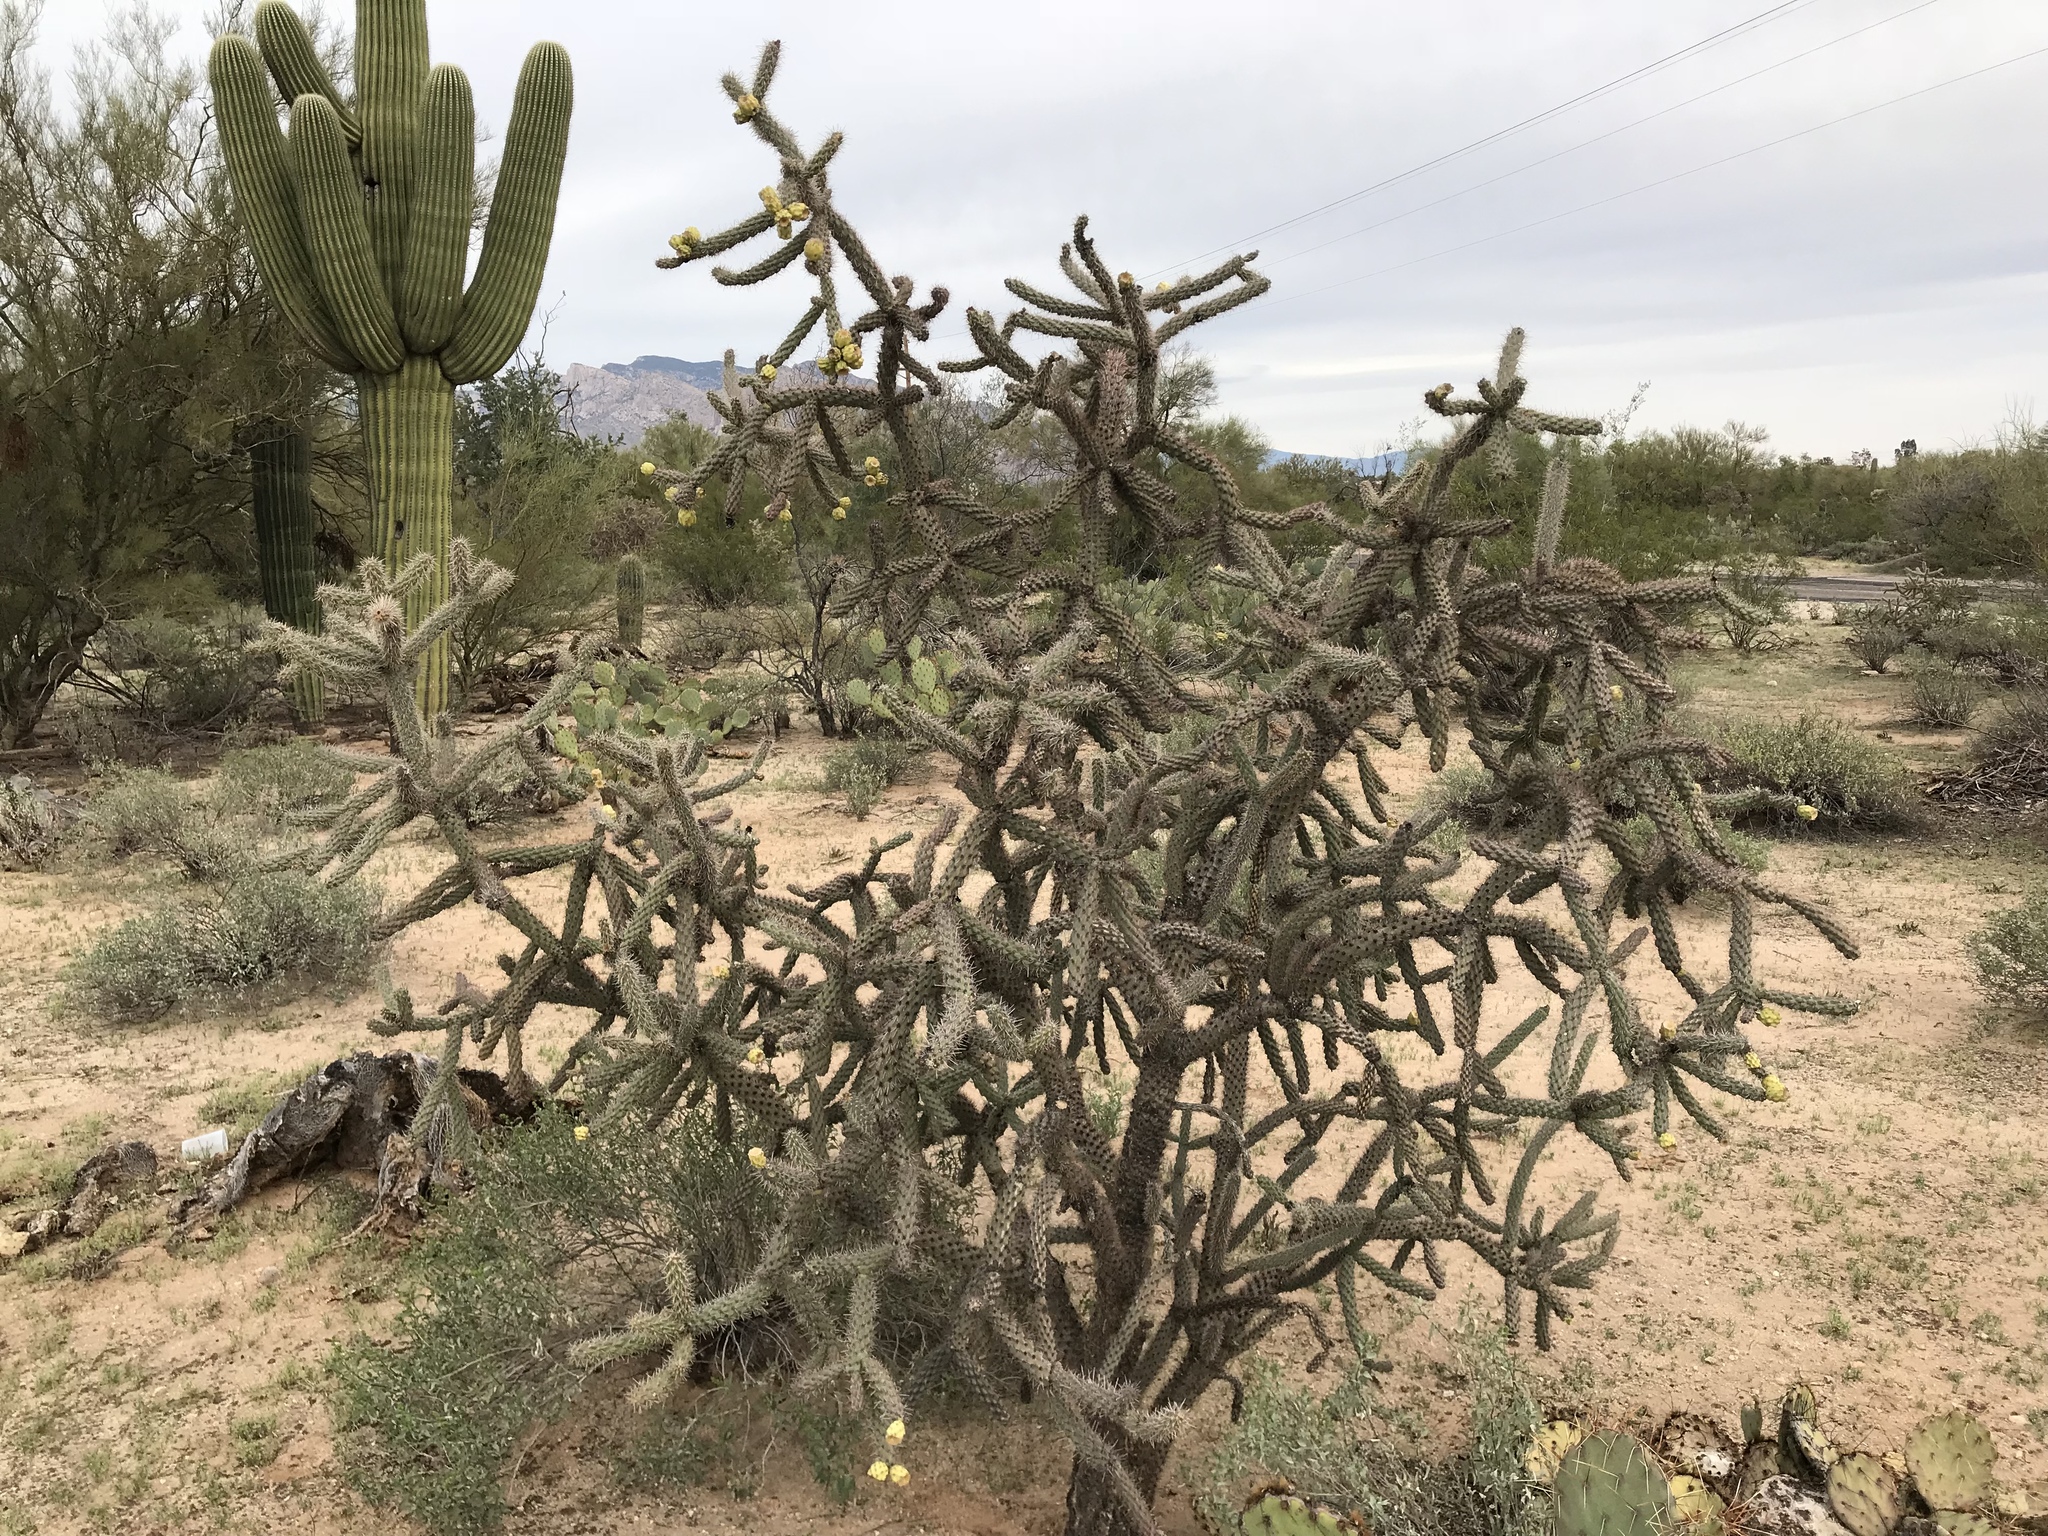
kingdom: Plantae
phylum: Tracheophyta
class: Magnoliopsida
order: Caryophyllales
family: Cactaceae
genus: Cylindropuntia
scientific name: Cylindropuntia imbricata
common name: Candelabrum cactus
